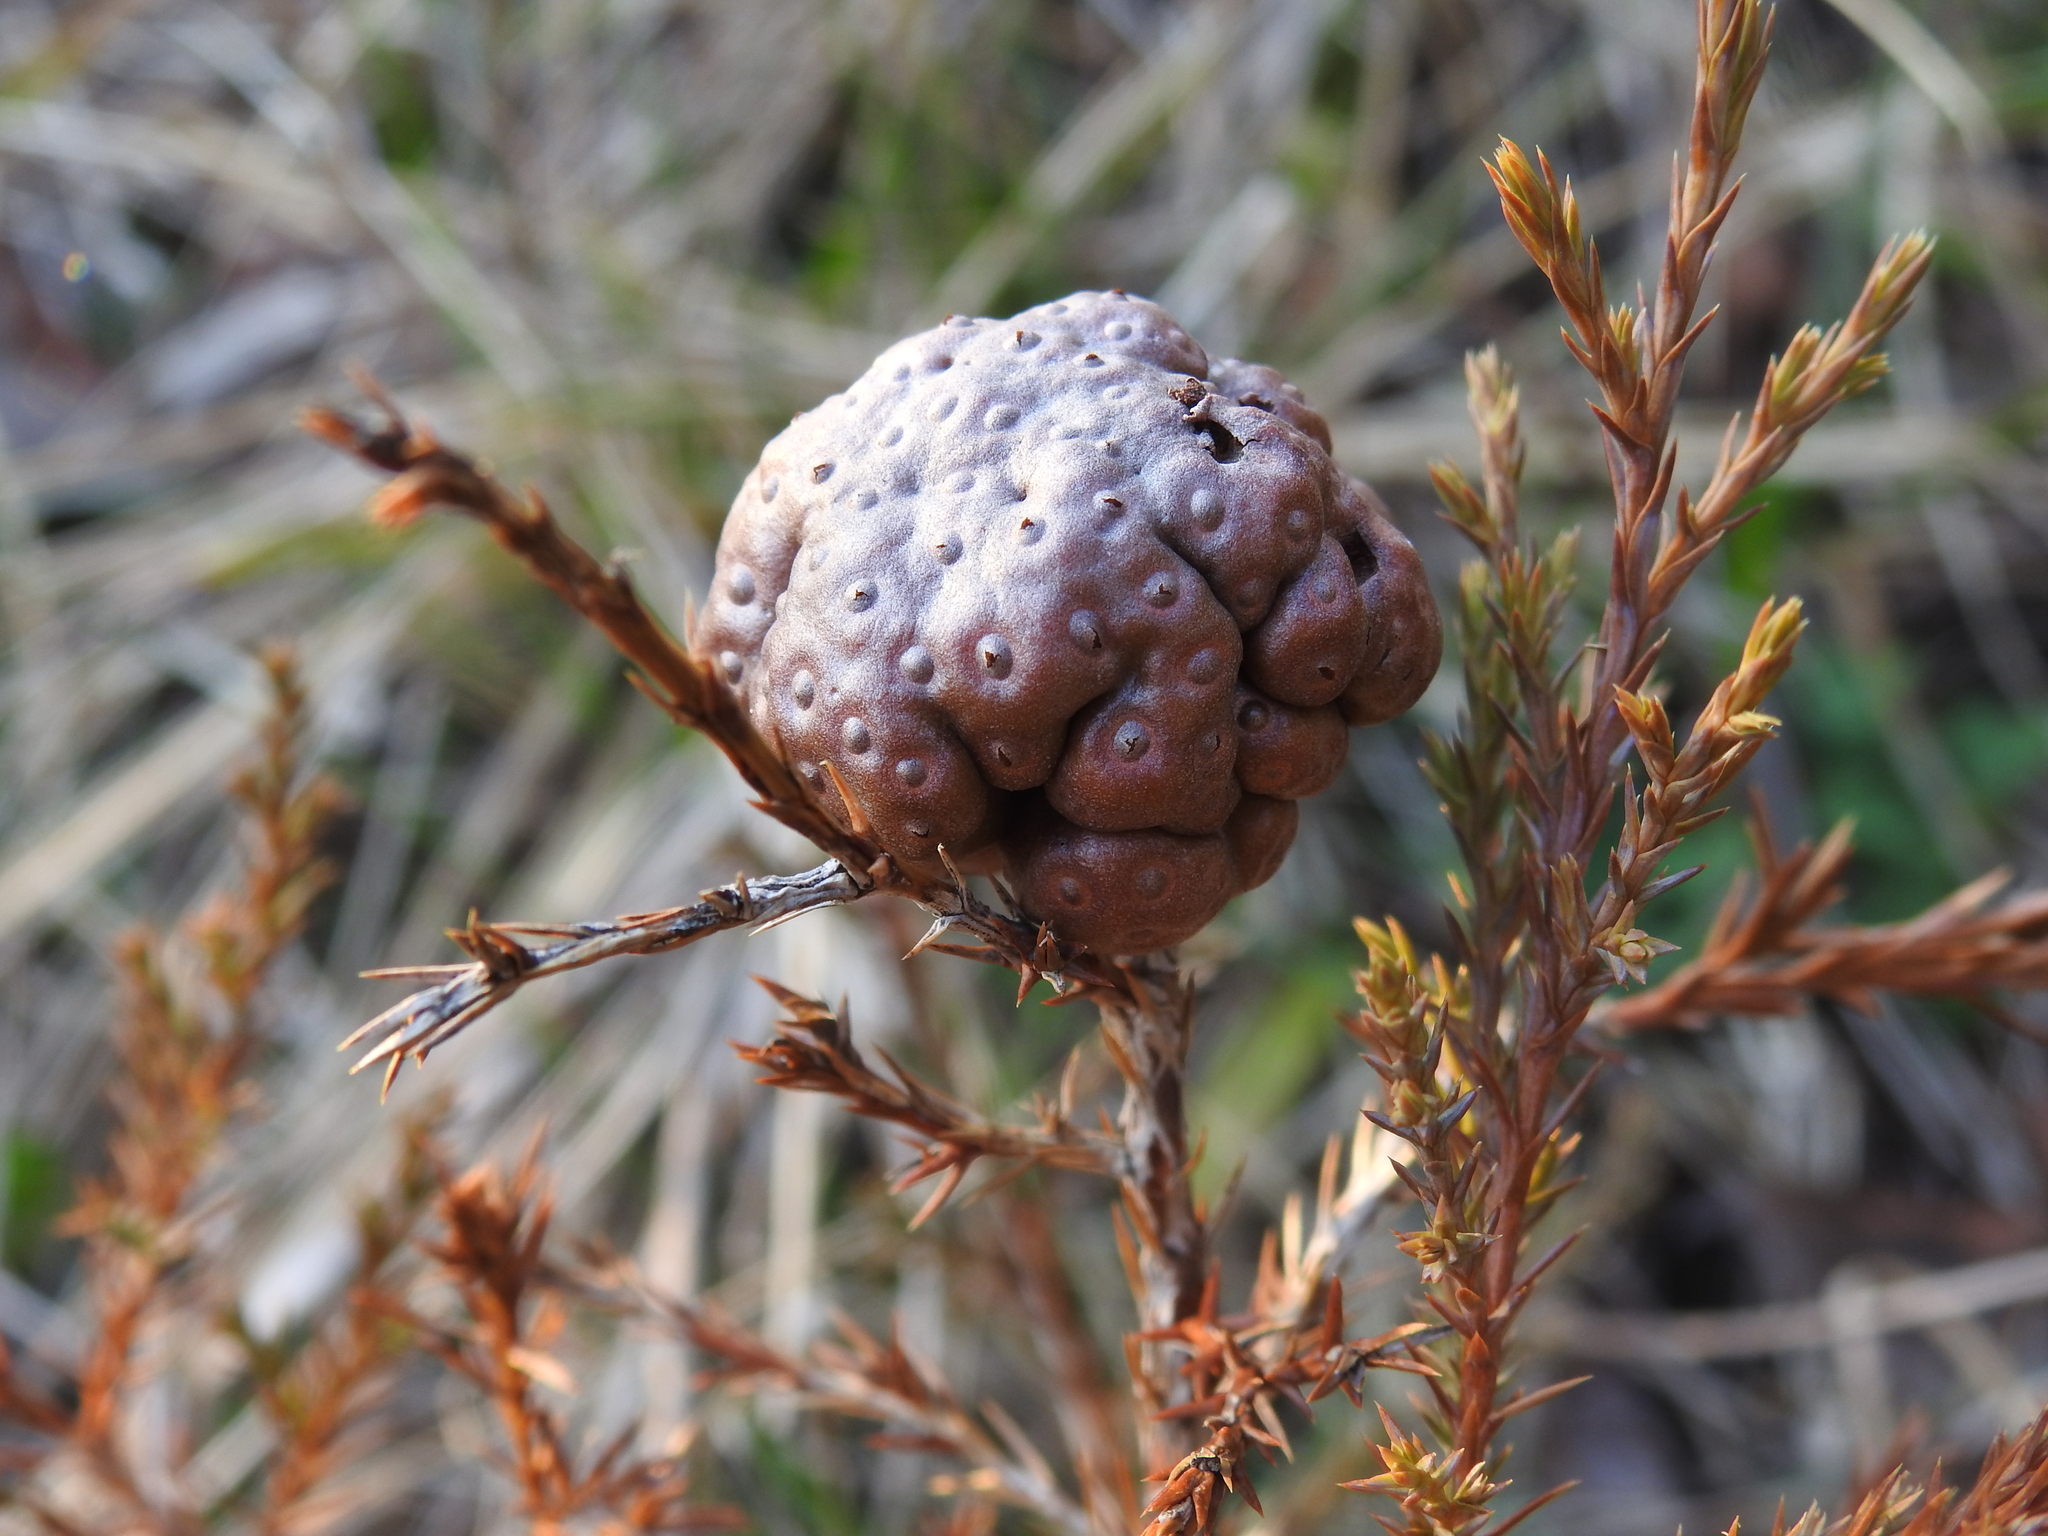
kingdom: Fungi
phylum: Basidiomycota
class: Pucciniomycetes
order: Pucciniales
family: Gymnosporangiaceae
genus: Gymnosporangium
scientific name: Gymnosporangium juniperi-virginianae
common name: Juniper-apple rust
